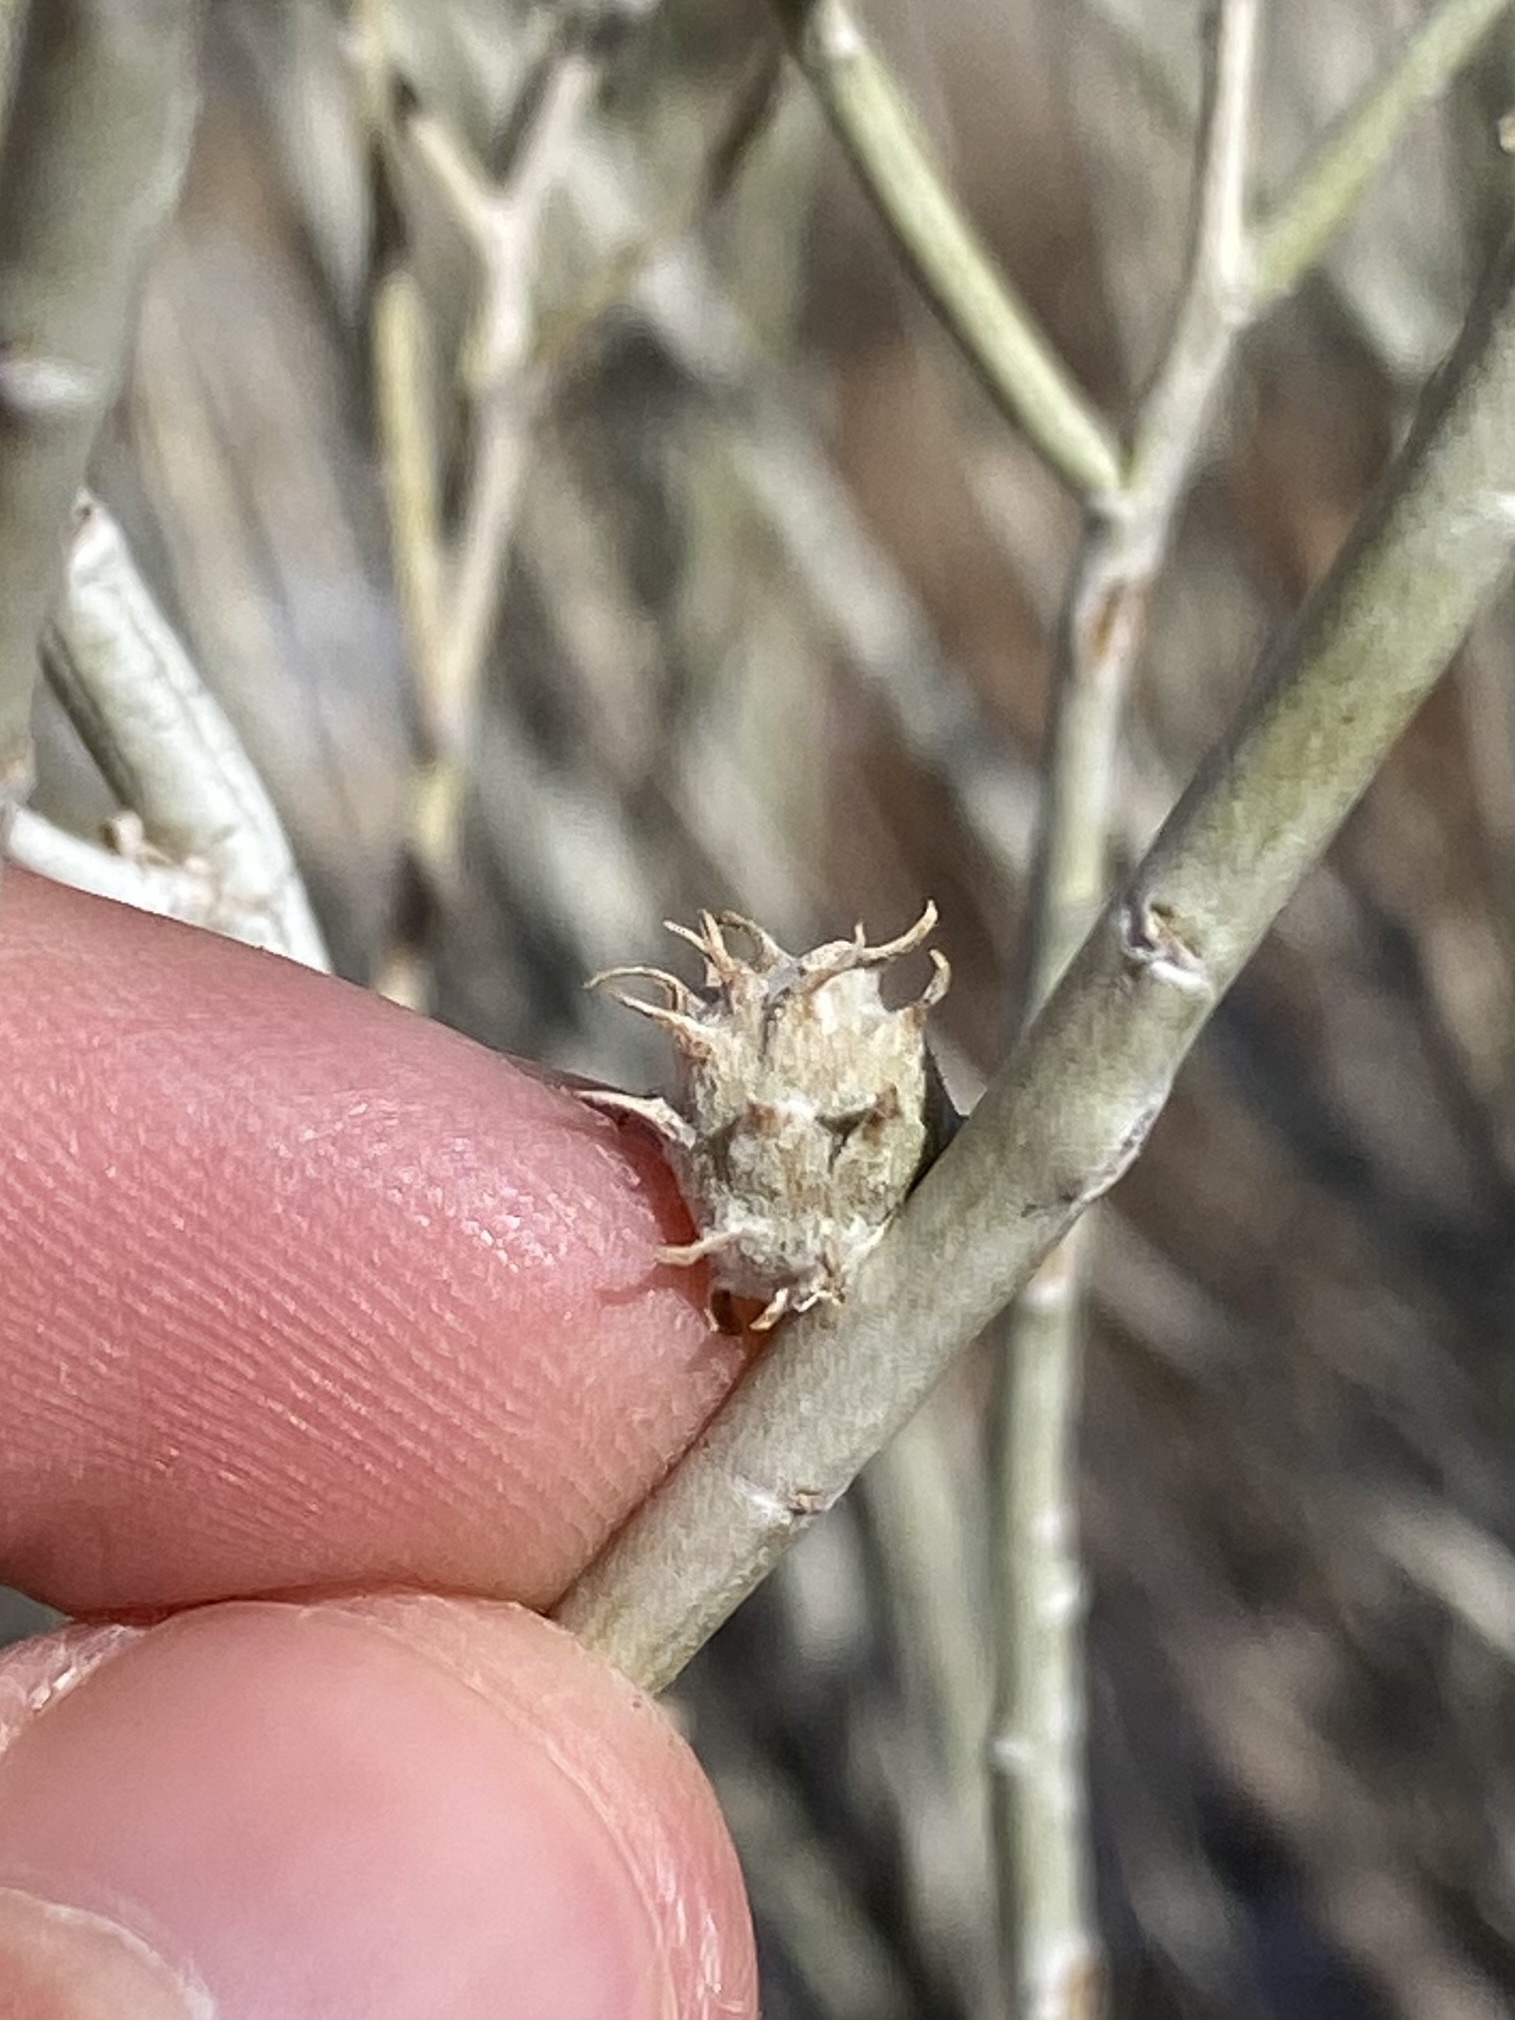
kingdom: Animalia
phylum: Arthropoda
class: Insecta
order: Diptera
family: Cecidomyiidae
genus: Rhopalomyia
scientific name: Rhopalomyia utahensis
